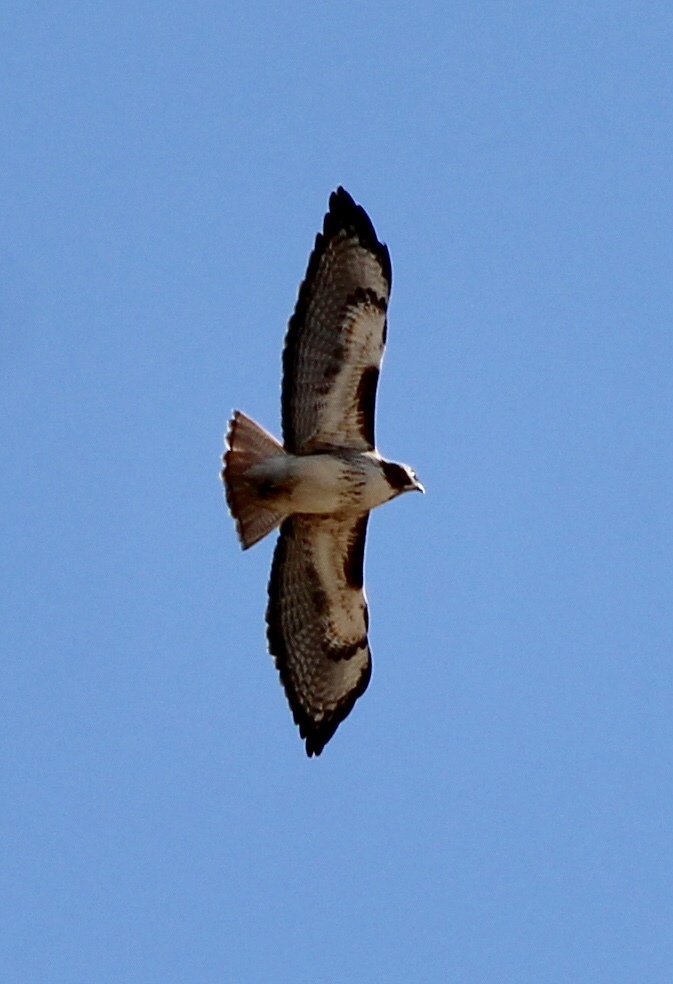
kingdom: Animalia
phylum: Chordata
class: Aves
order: Accipitriformes
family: Accipitridae
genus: Buteo
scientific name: Buteo jamaicensis
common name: Red-tailed hawk
